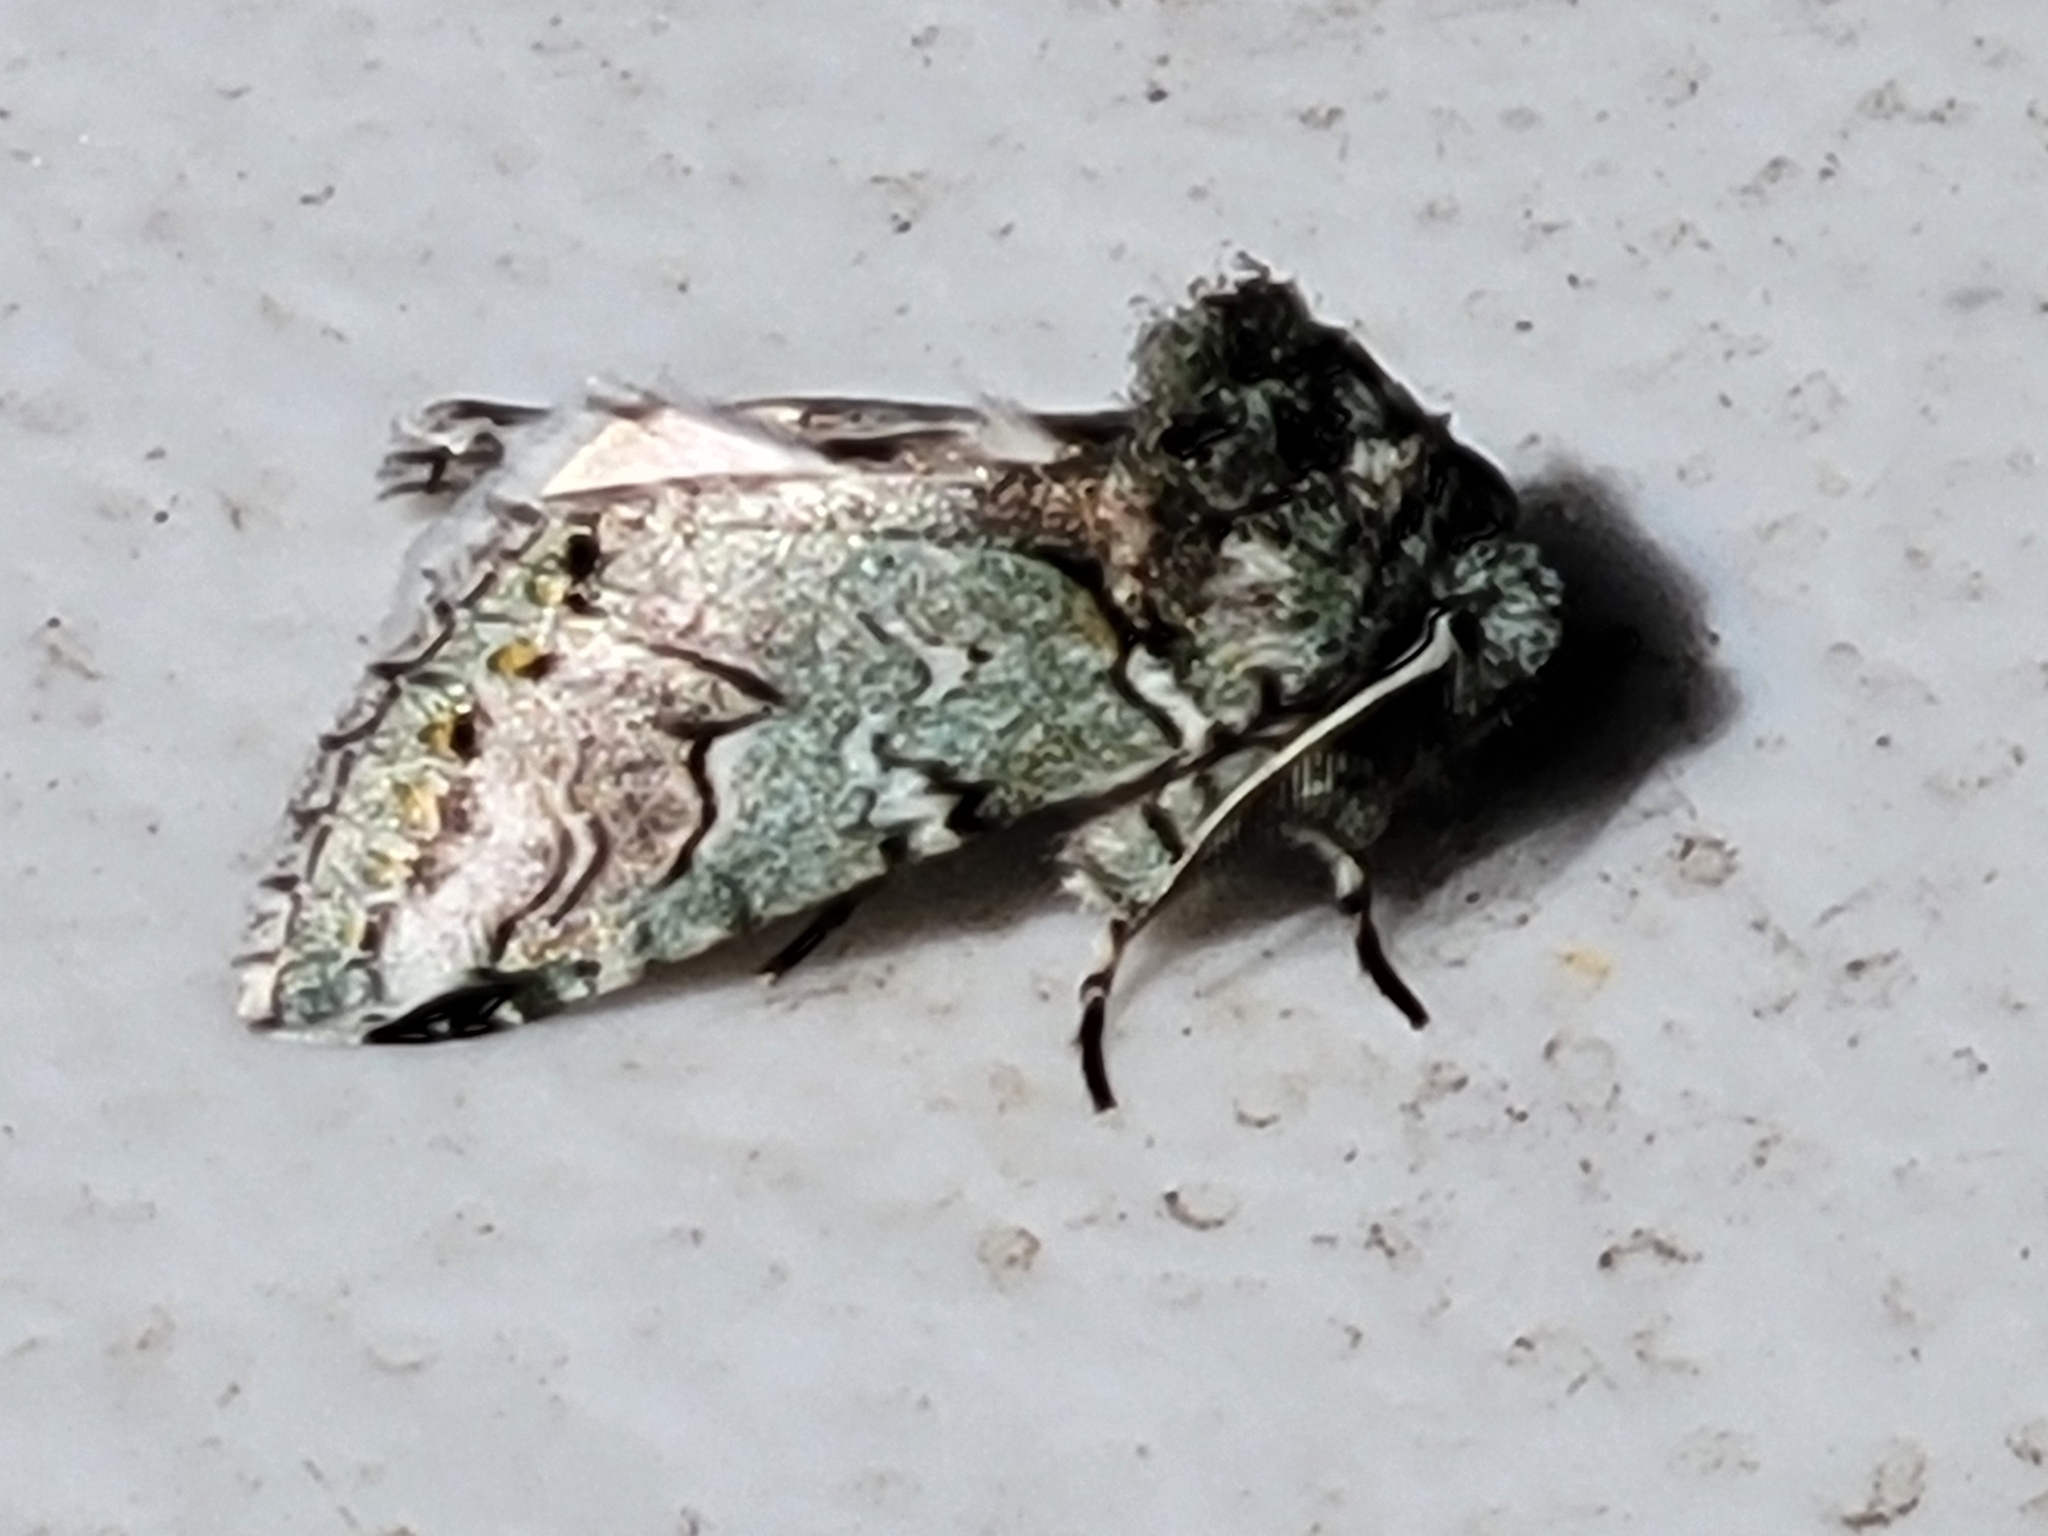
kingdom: Animalia
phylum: Arthropoda
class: Insecta
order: Lepidoptera
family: Notodontidae
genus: Litodonta
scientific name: Litodonta hydromeli
